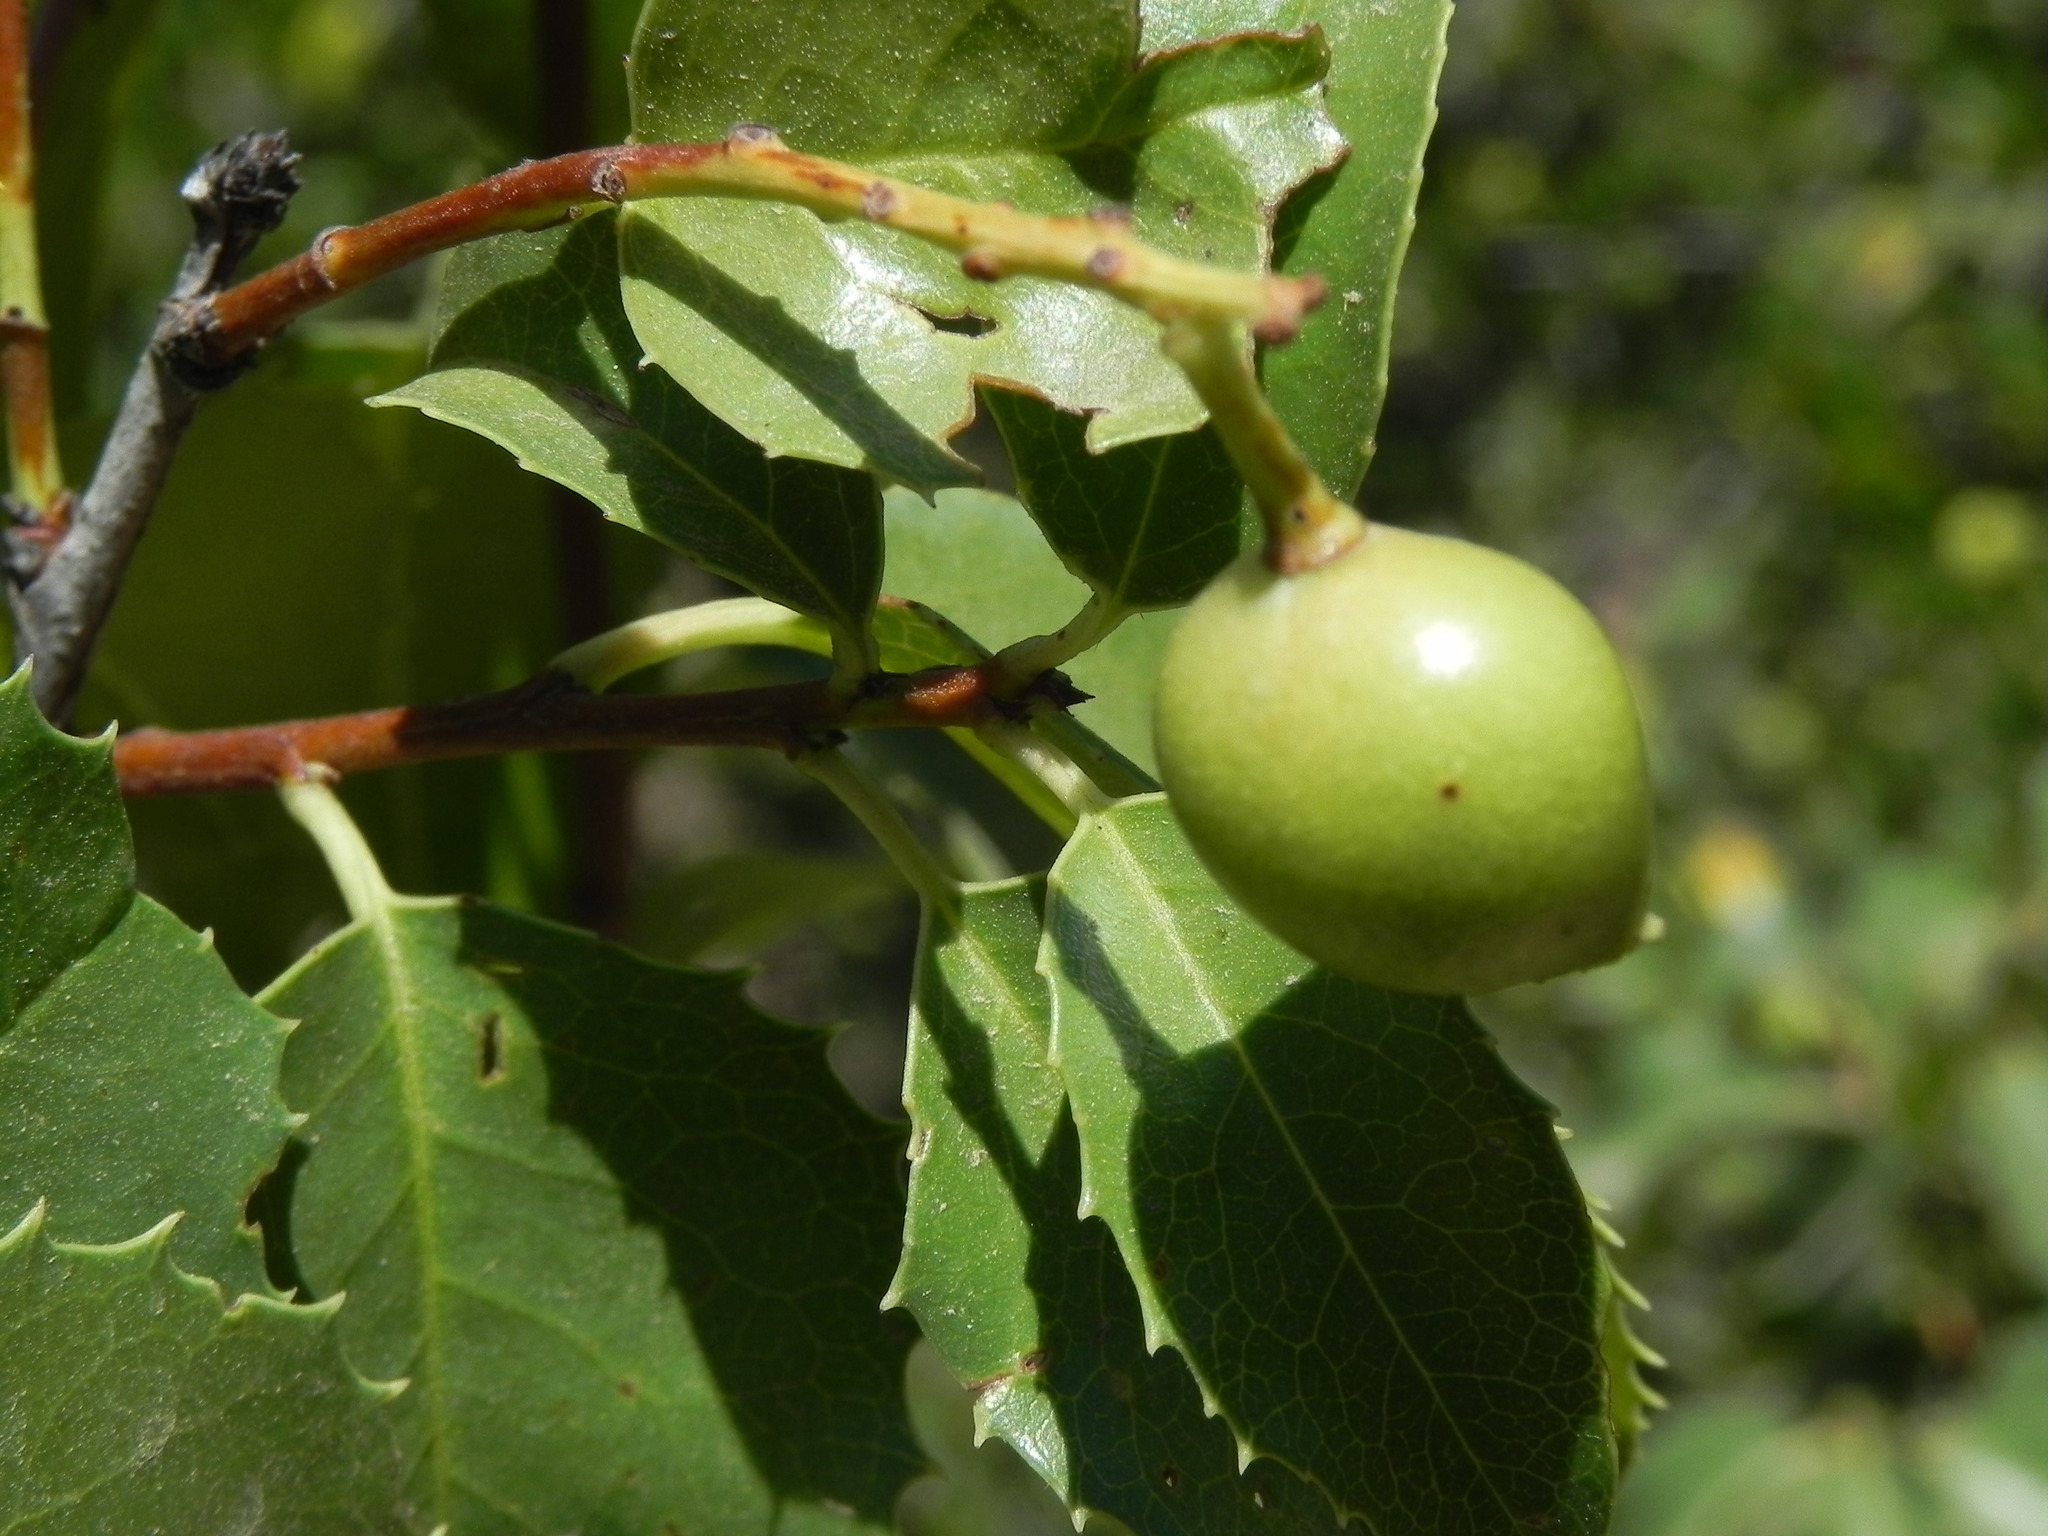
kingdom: Plantae
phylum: Tracheophyta
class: Magnoliopsida
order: Rosales
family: Rosaceae
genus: Prunus
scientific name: Prunus ilicifolia
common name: Hollyleaf cherry
